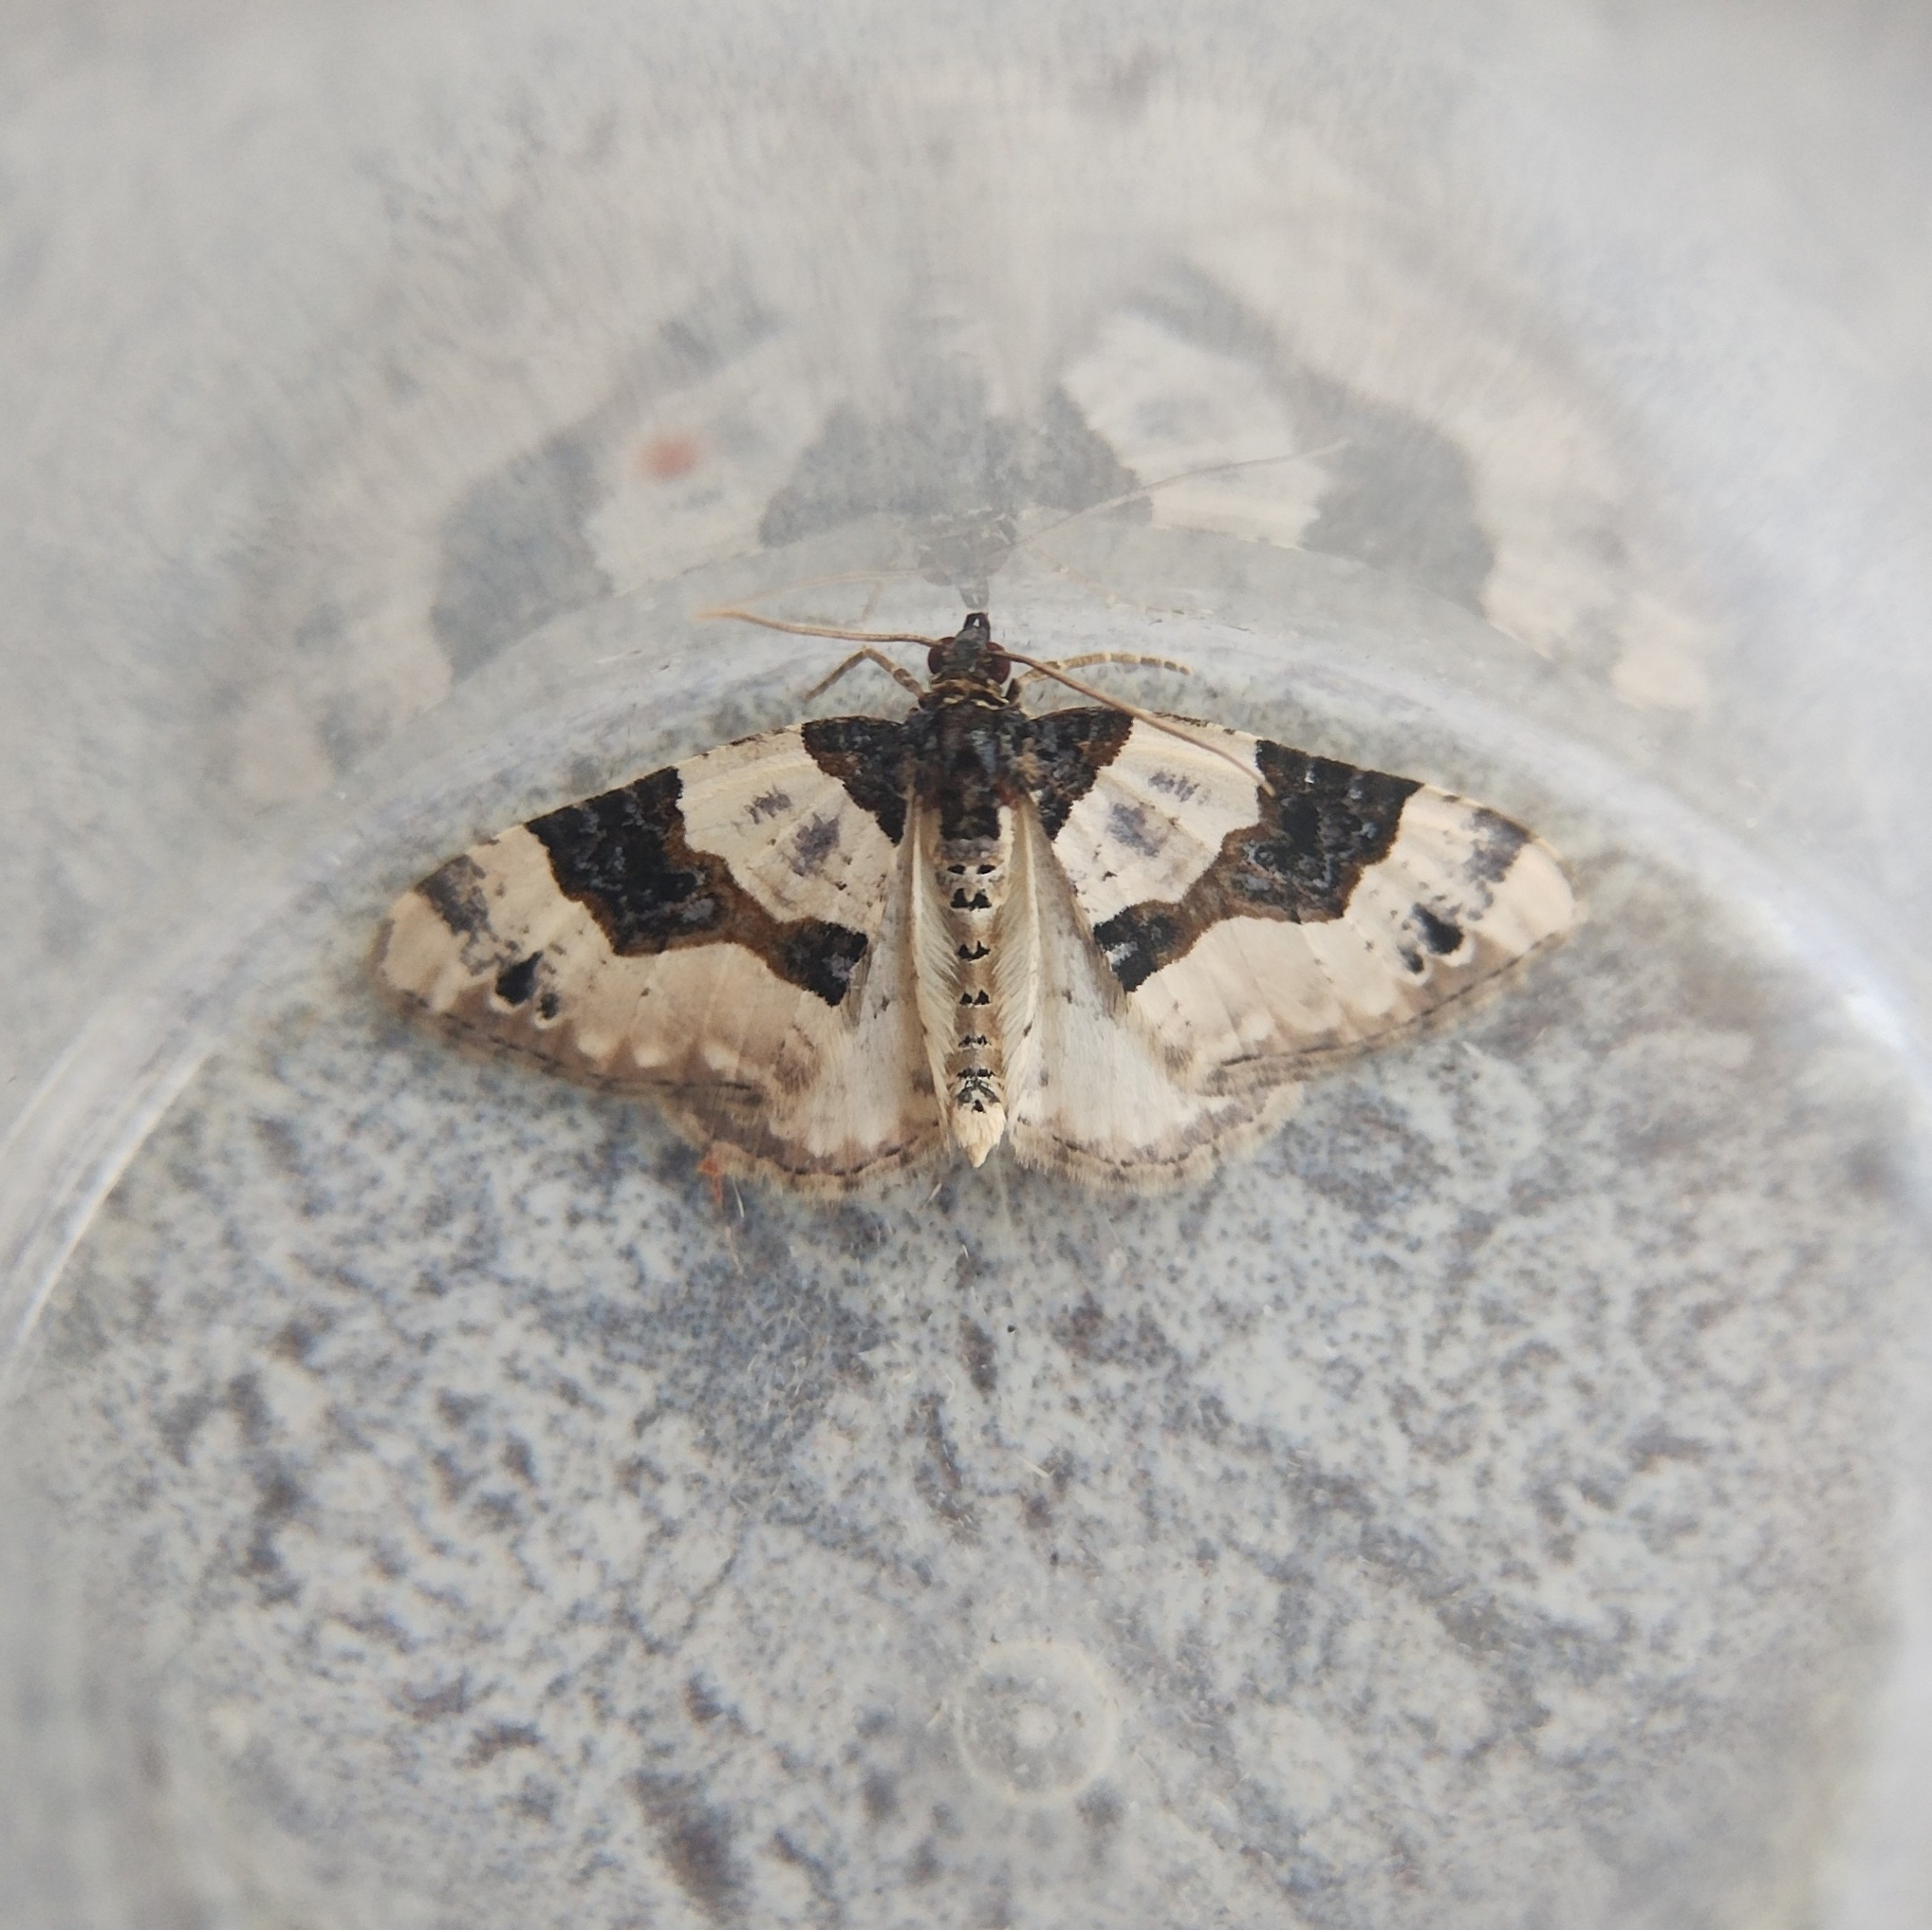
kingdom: Animalia
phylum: Arthropoda
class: Insecta
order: Lepidoptera
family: Geometridae
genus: Cosmorhoe
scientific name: Cosmorhoe ocellata
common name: Purple bar
